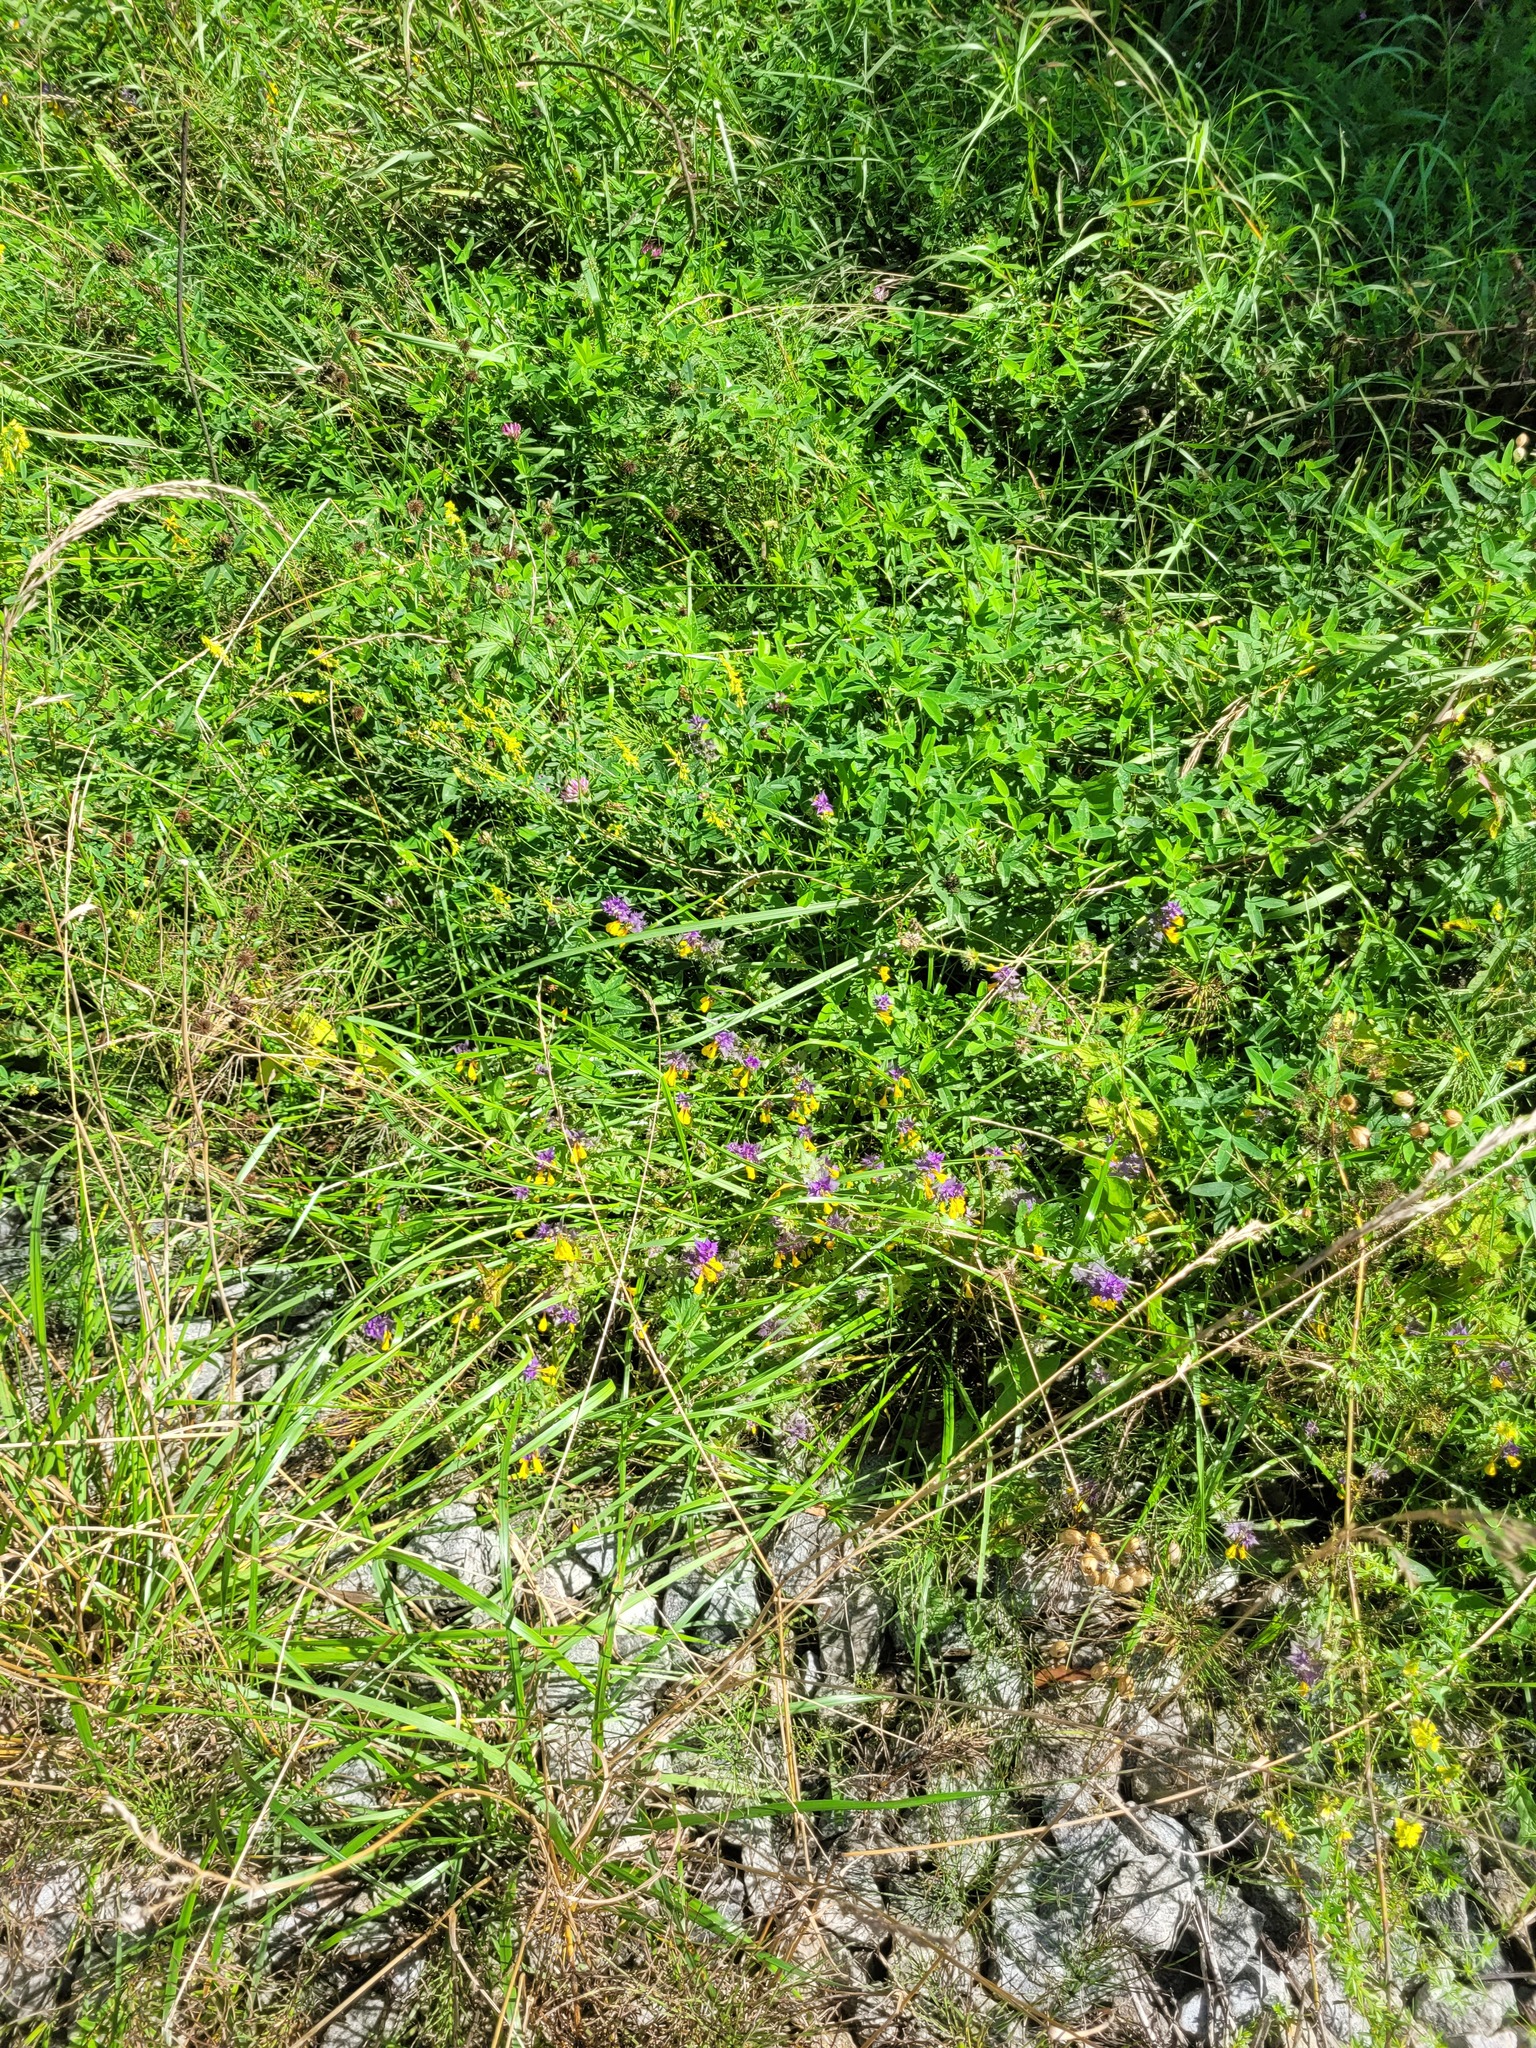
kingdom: Plantae
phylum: Tracheophyta
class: Magnoliopsida
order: Lamiales
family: Orobanchaceae
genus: Melampyrum
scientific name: Melampyrum nemorosum
